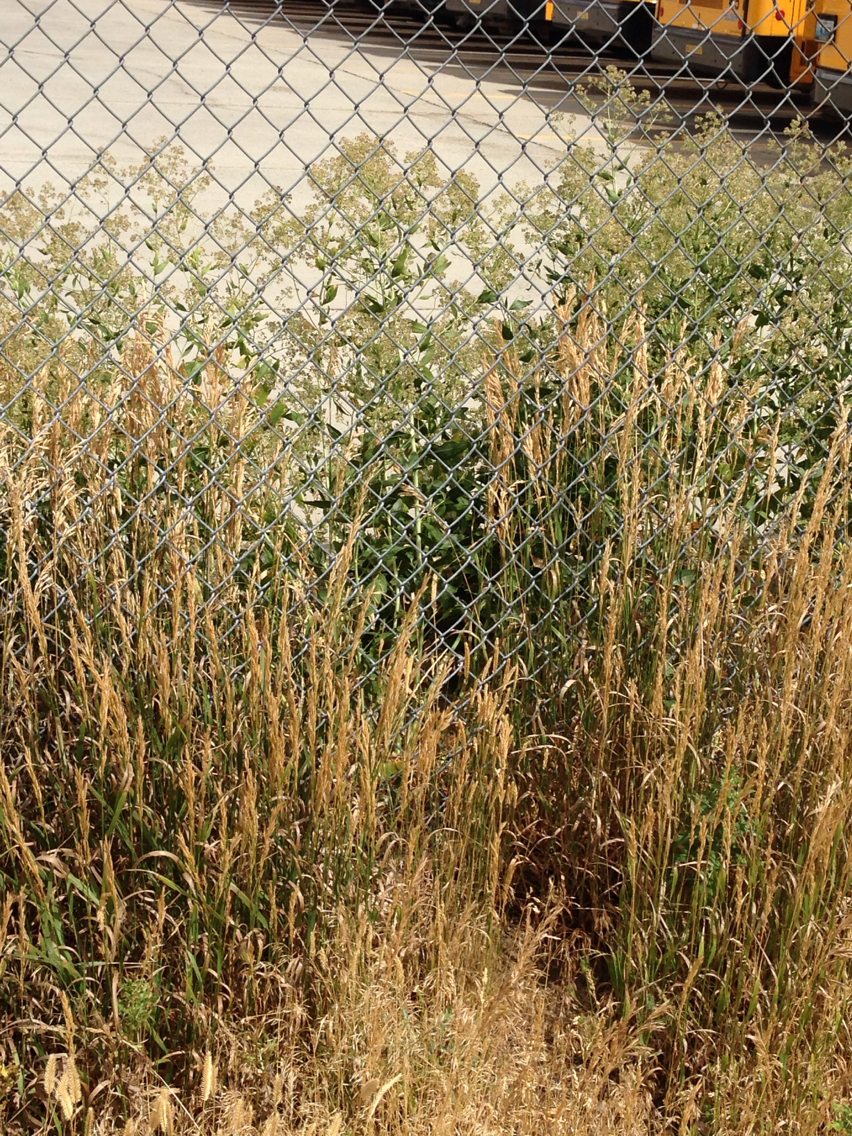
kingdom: Plantae
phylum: Tracheophyta
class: Magnoliopsida
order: Brassicales
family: Brassicaceae
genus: Lepidium
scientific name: Lepidium latifolium
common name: Dittander
